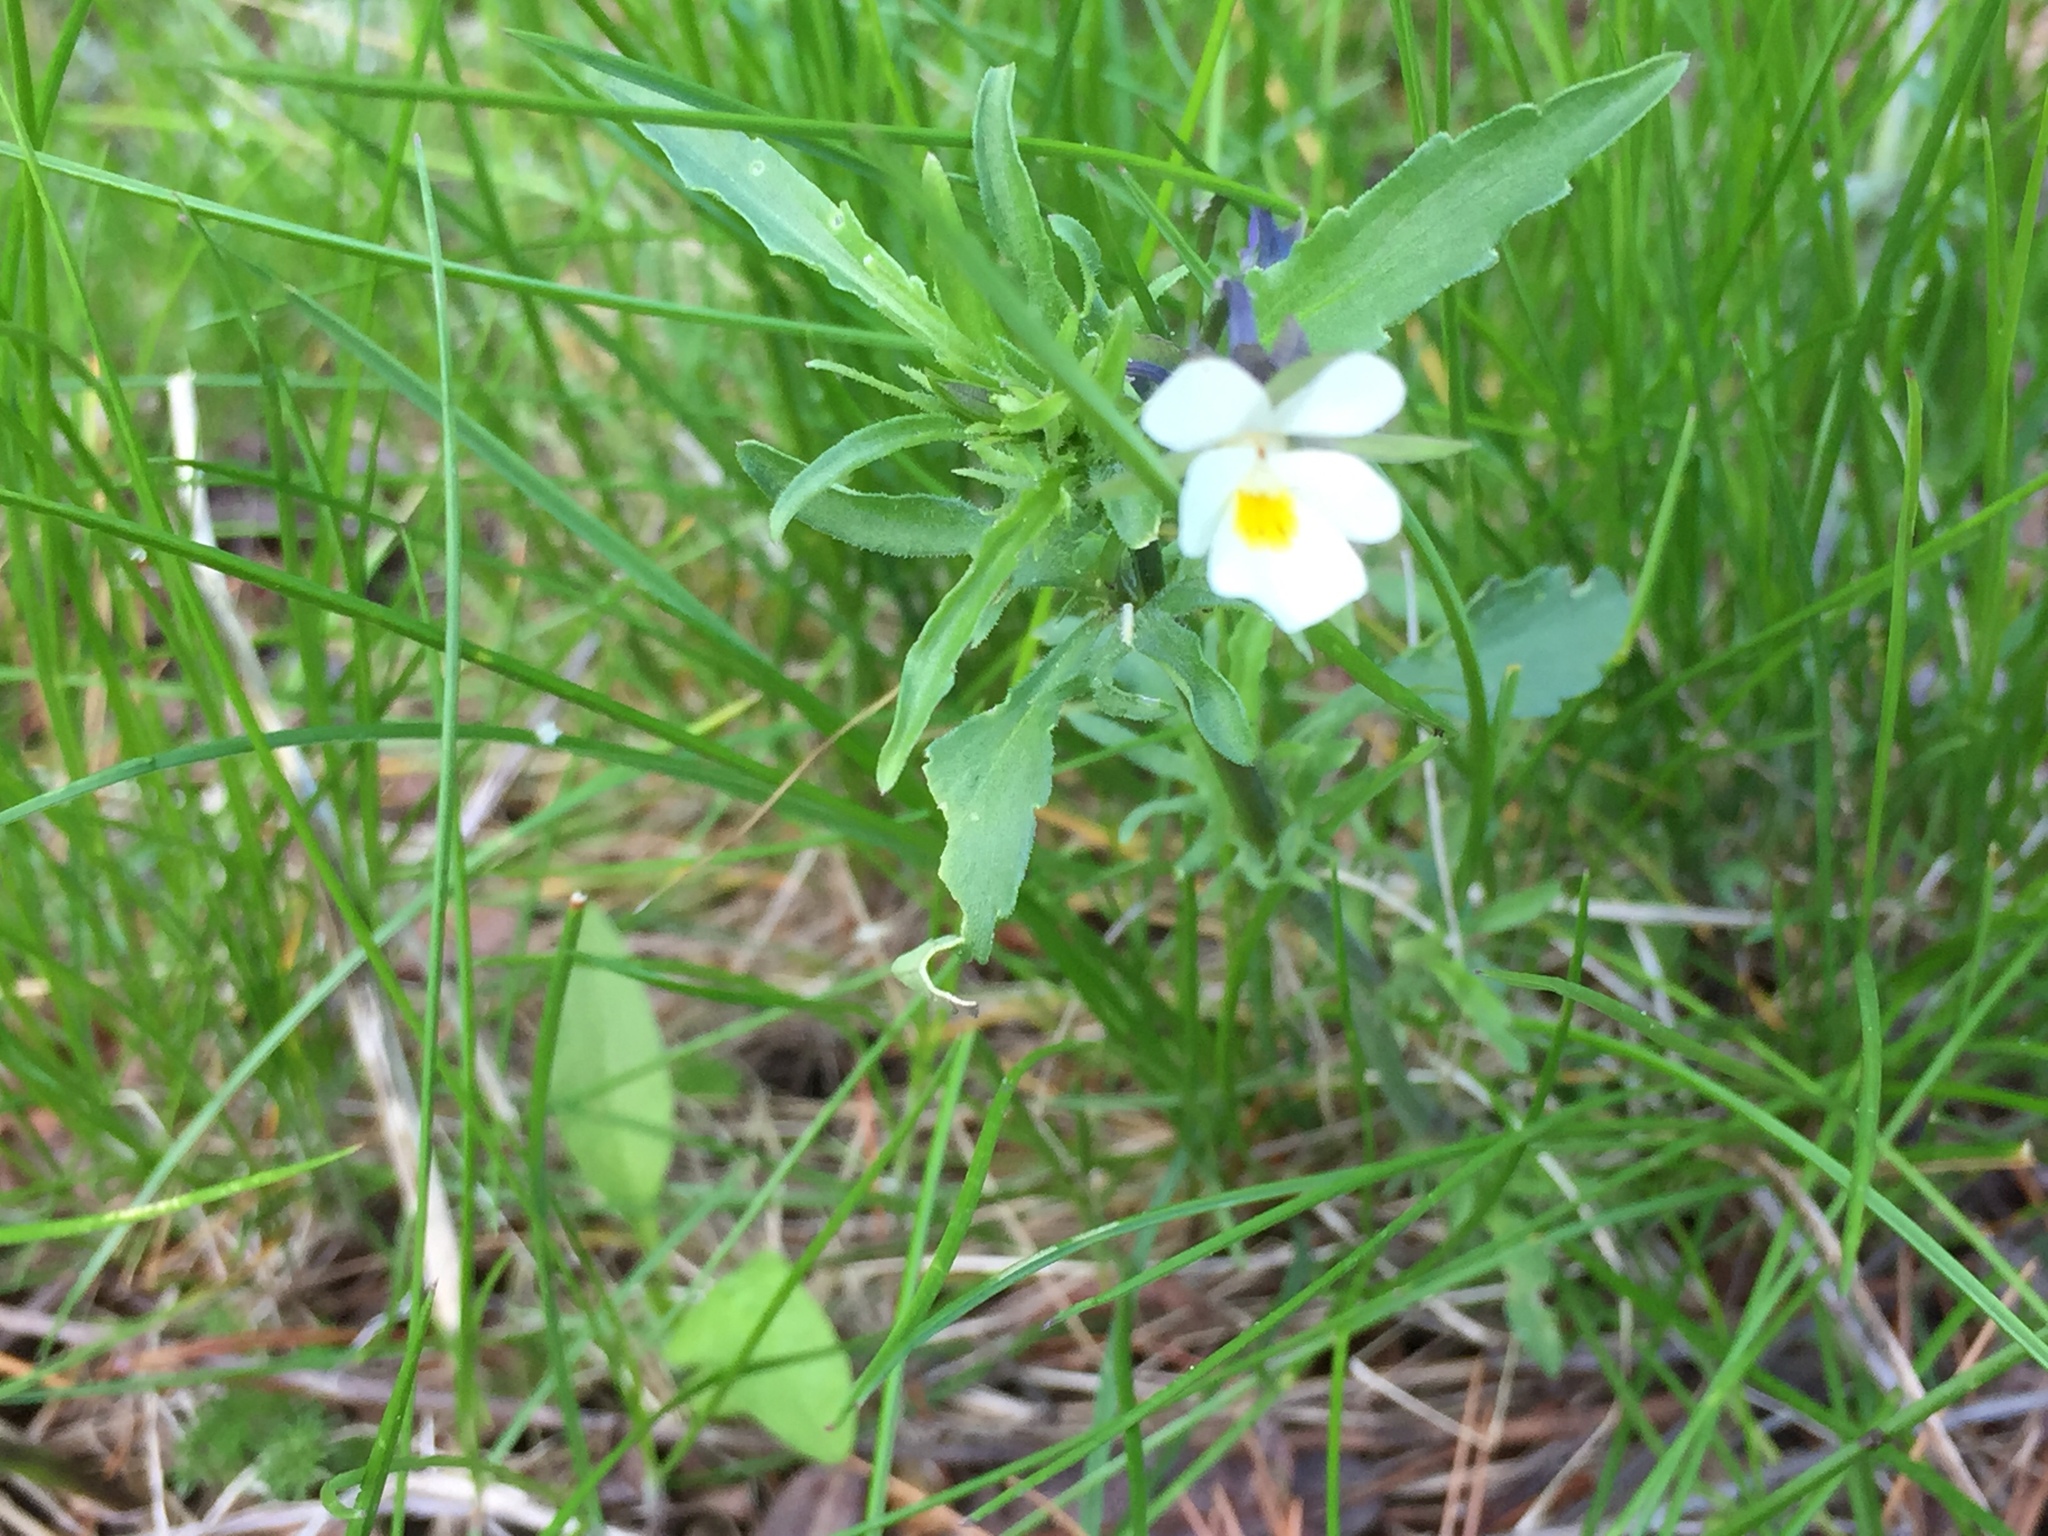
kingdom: Plantae
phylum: Tracheophyta
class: Magnoliopsida
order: Malpighiales
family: Violaceae
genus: Viola
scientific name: Viola arvensis
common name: Field pansy
